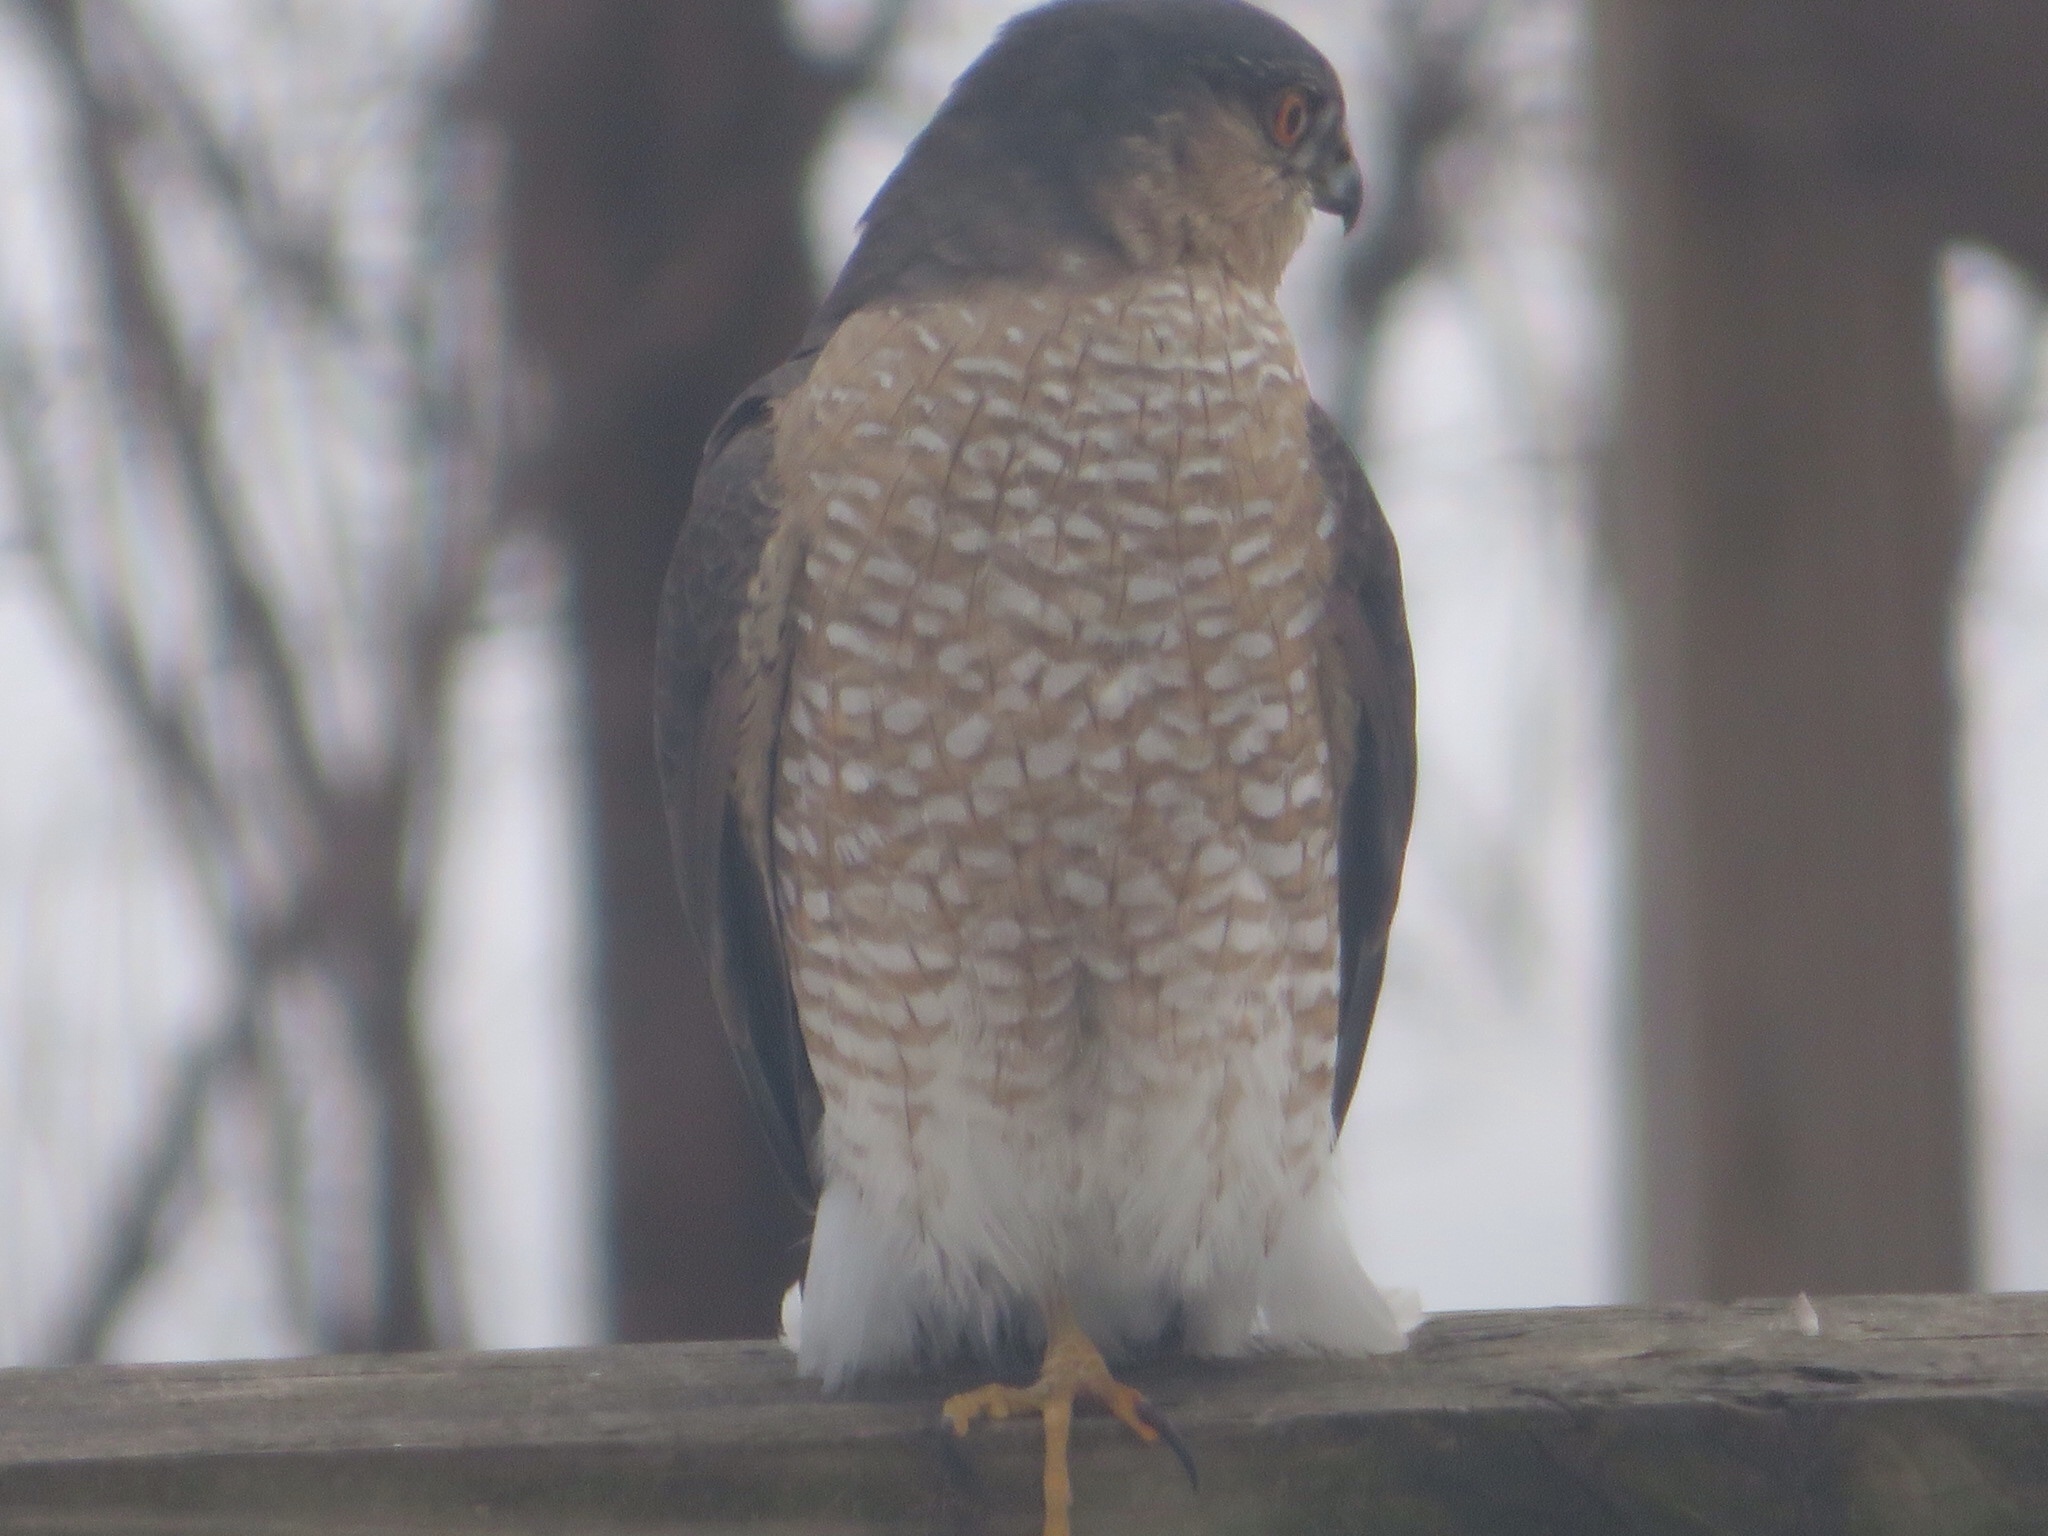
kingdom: Animalia
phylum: Chordata
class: Aves
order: Accipitriformes
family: Accipitridae
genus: Accipiter
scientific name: Accipiter striatus
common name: Sharp-shinned hawk
